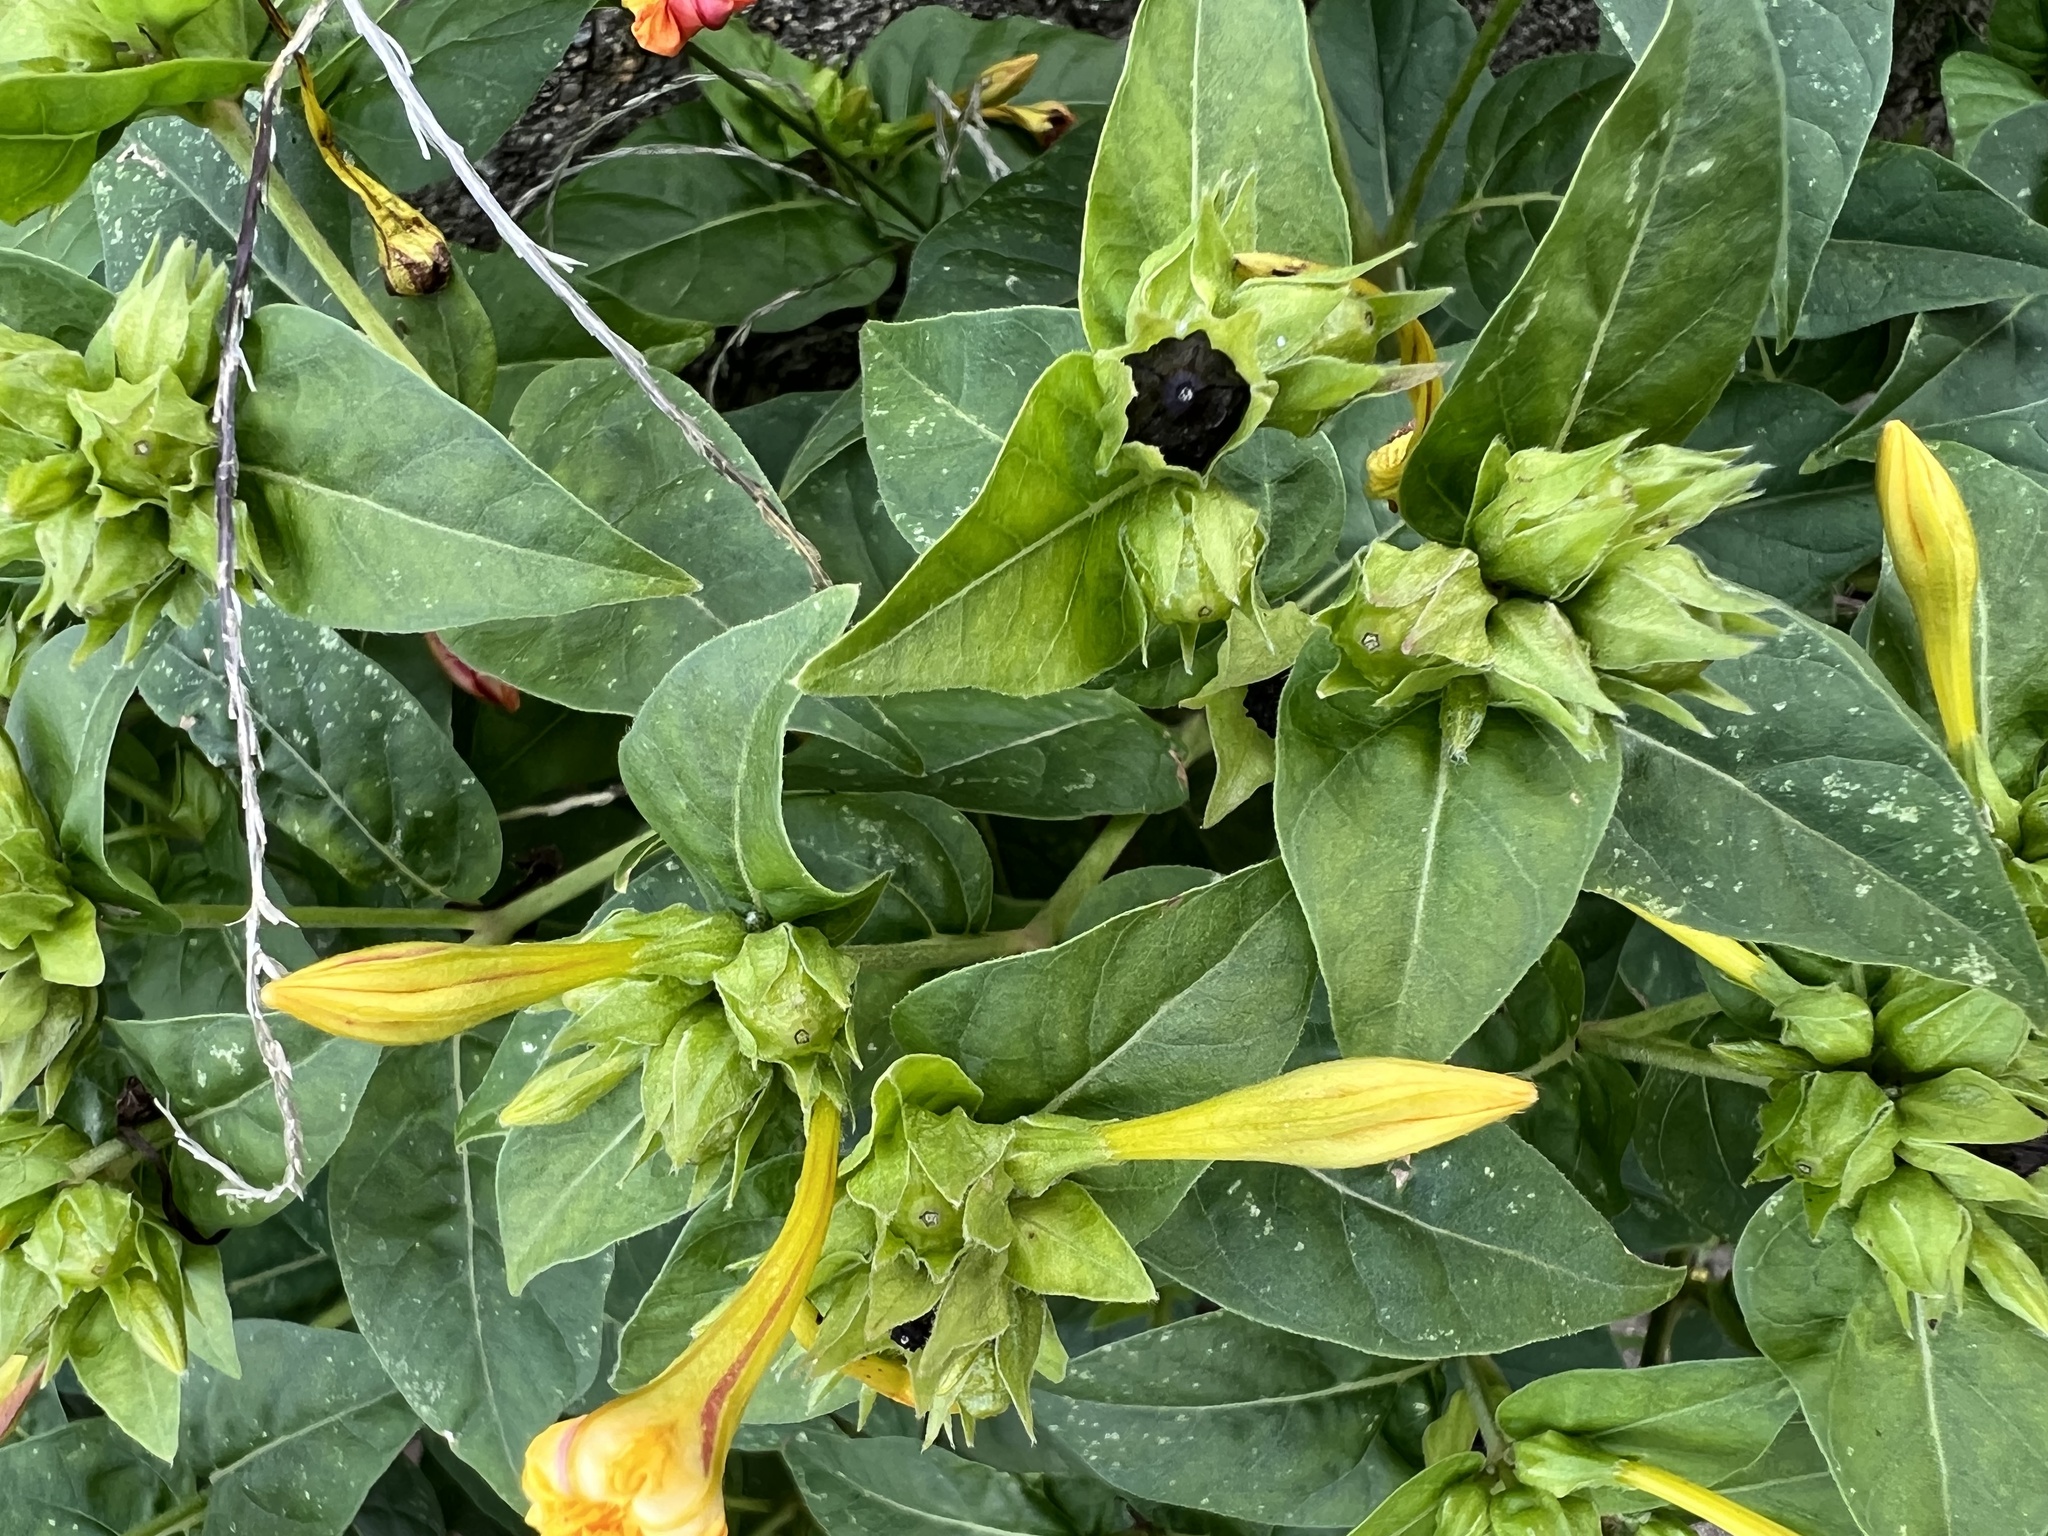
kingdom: Plantae
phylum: Tracheophyta
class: Magnoliopsida
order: Caryophyllales
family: Nyctaginaceae
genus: Mirabilis
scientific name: Mirabilis jalapa
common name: Marvel-of-peru
